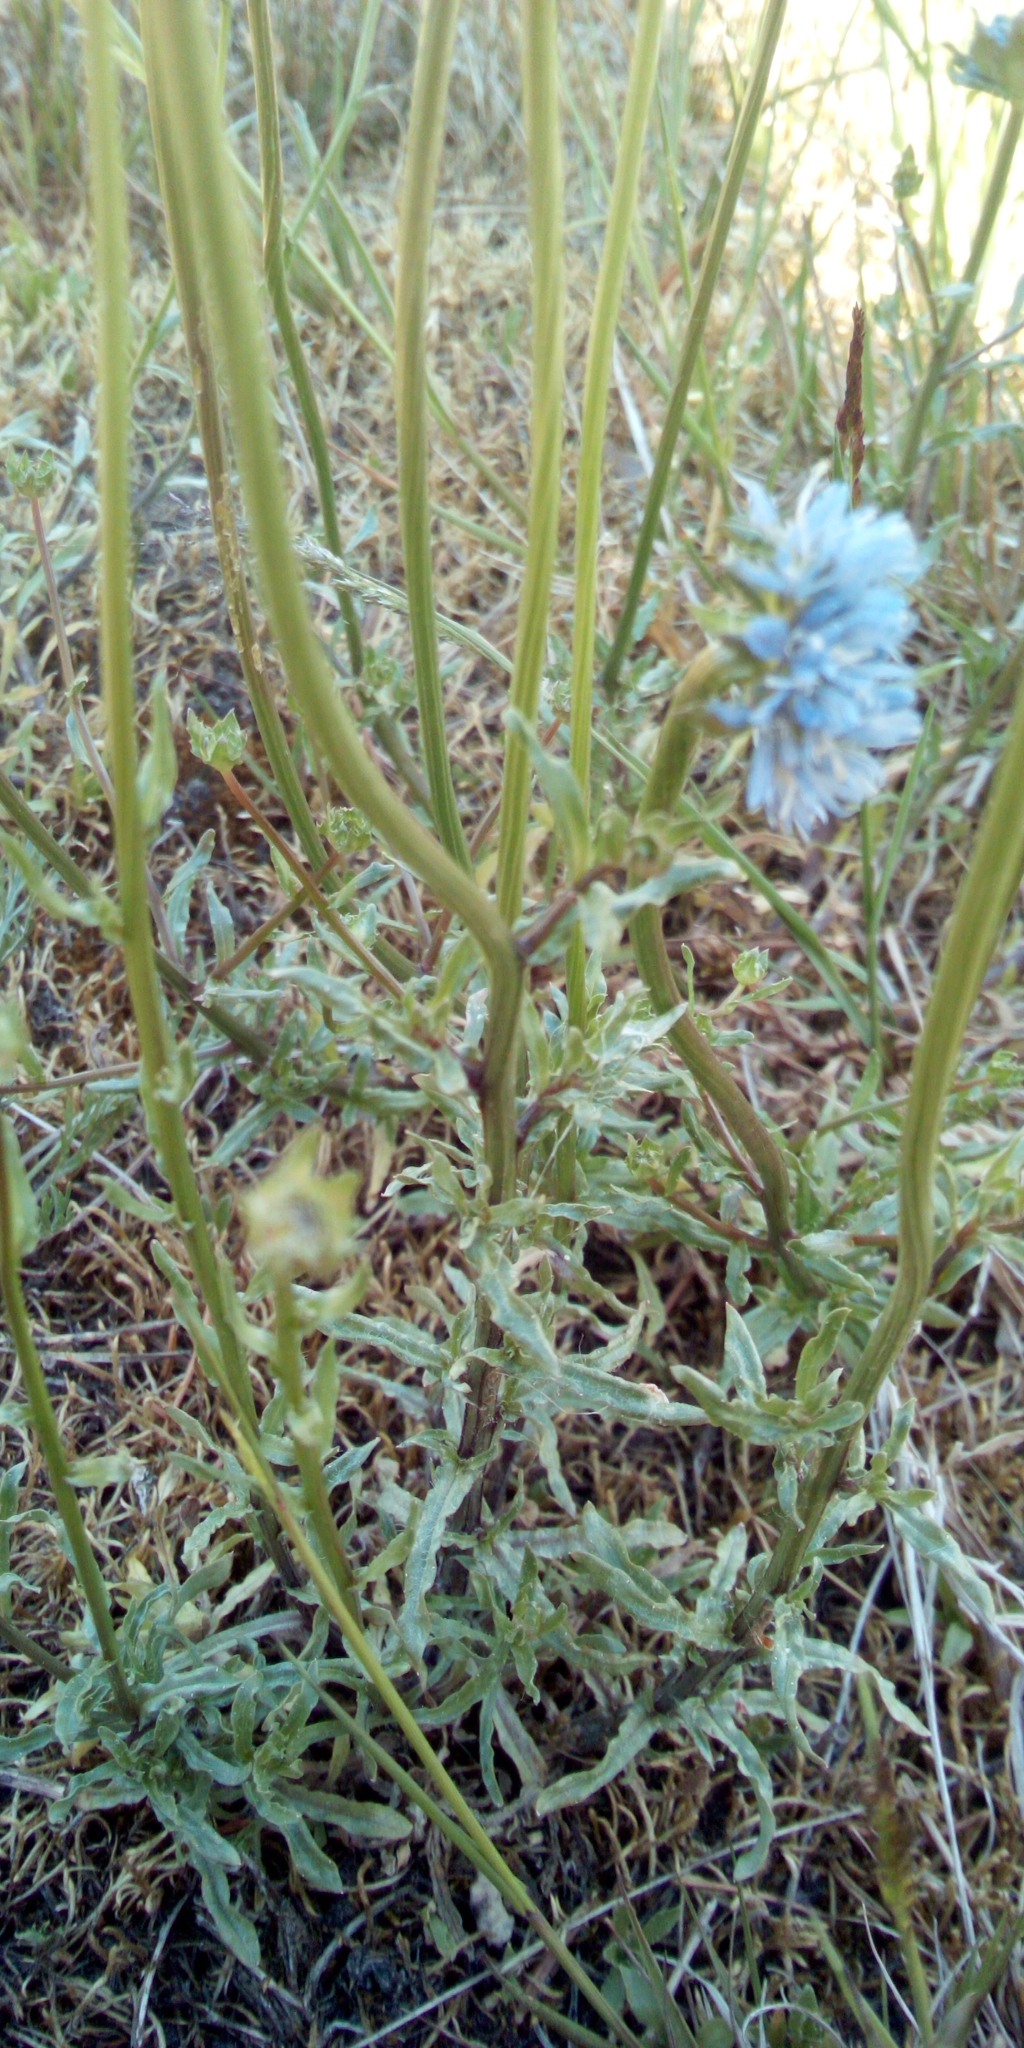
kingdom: Plantae
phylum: Tracheophyta
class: Magnoliopsida
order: Asterales
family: Campanulaceae
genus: Jasione
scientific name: Jasione montana
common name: Sheep's-bit
